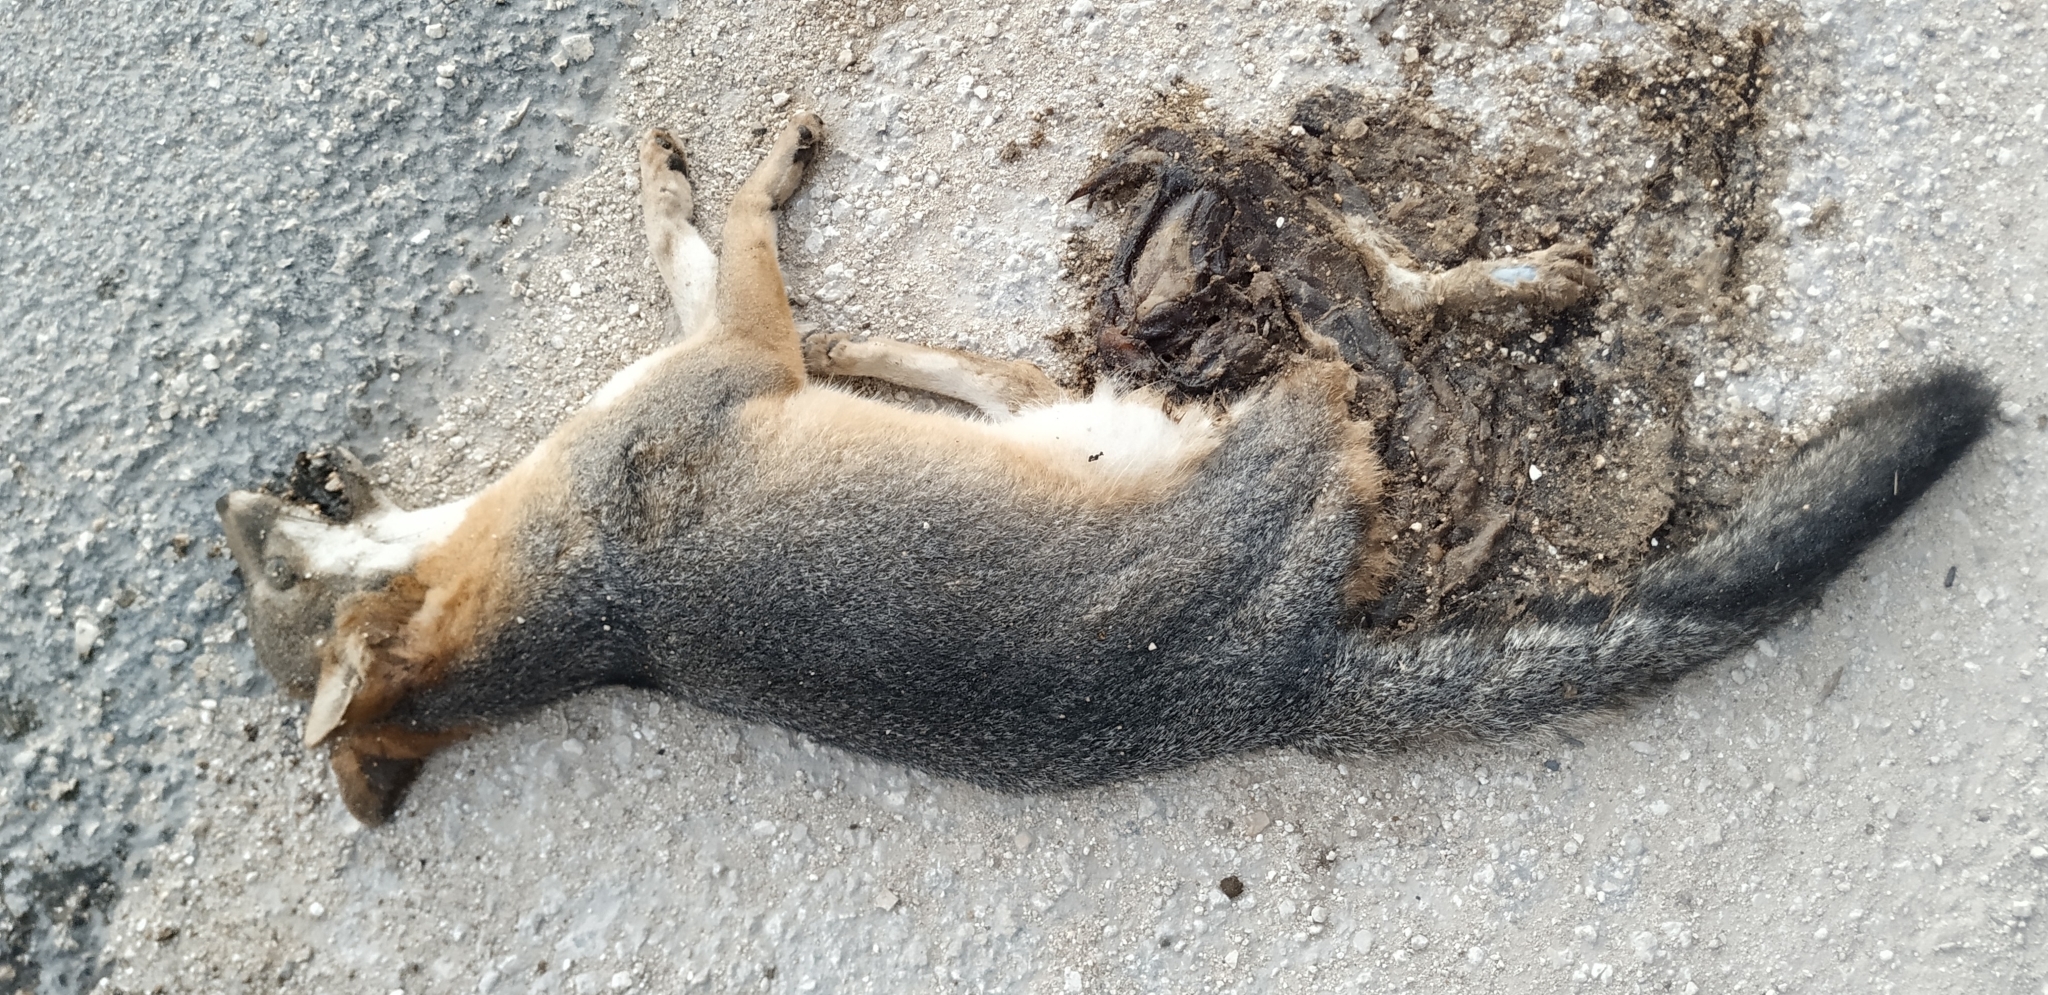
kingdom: Animalia
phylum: Chordata
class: Mammalia
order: Carnivora
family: Canidae
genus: Urocyon
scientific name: Urocyon cinereoargenteus
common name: Gray fox
